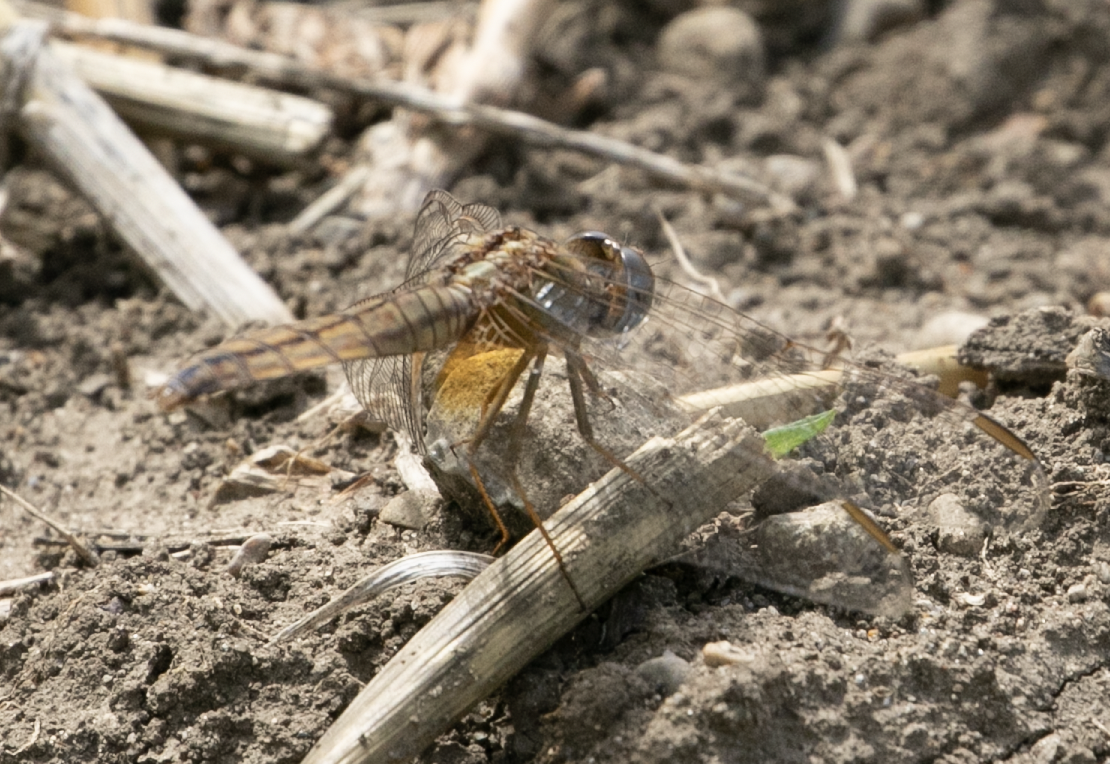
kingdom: Animalia
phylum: Arthropoda
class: Insecta
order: Odonata
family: Libellulidae
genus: Crocothemis
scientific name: Crocothemis erythraea
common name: Scarlet dragonfly
